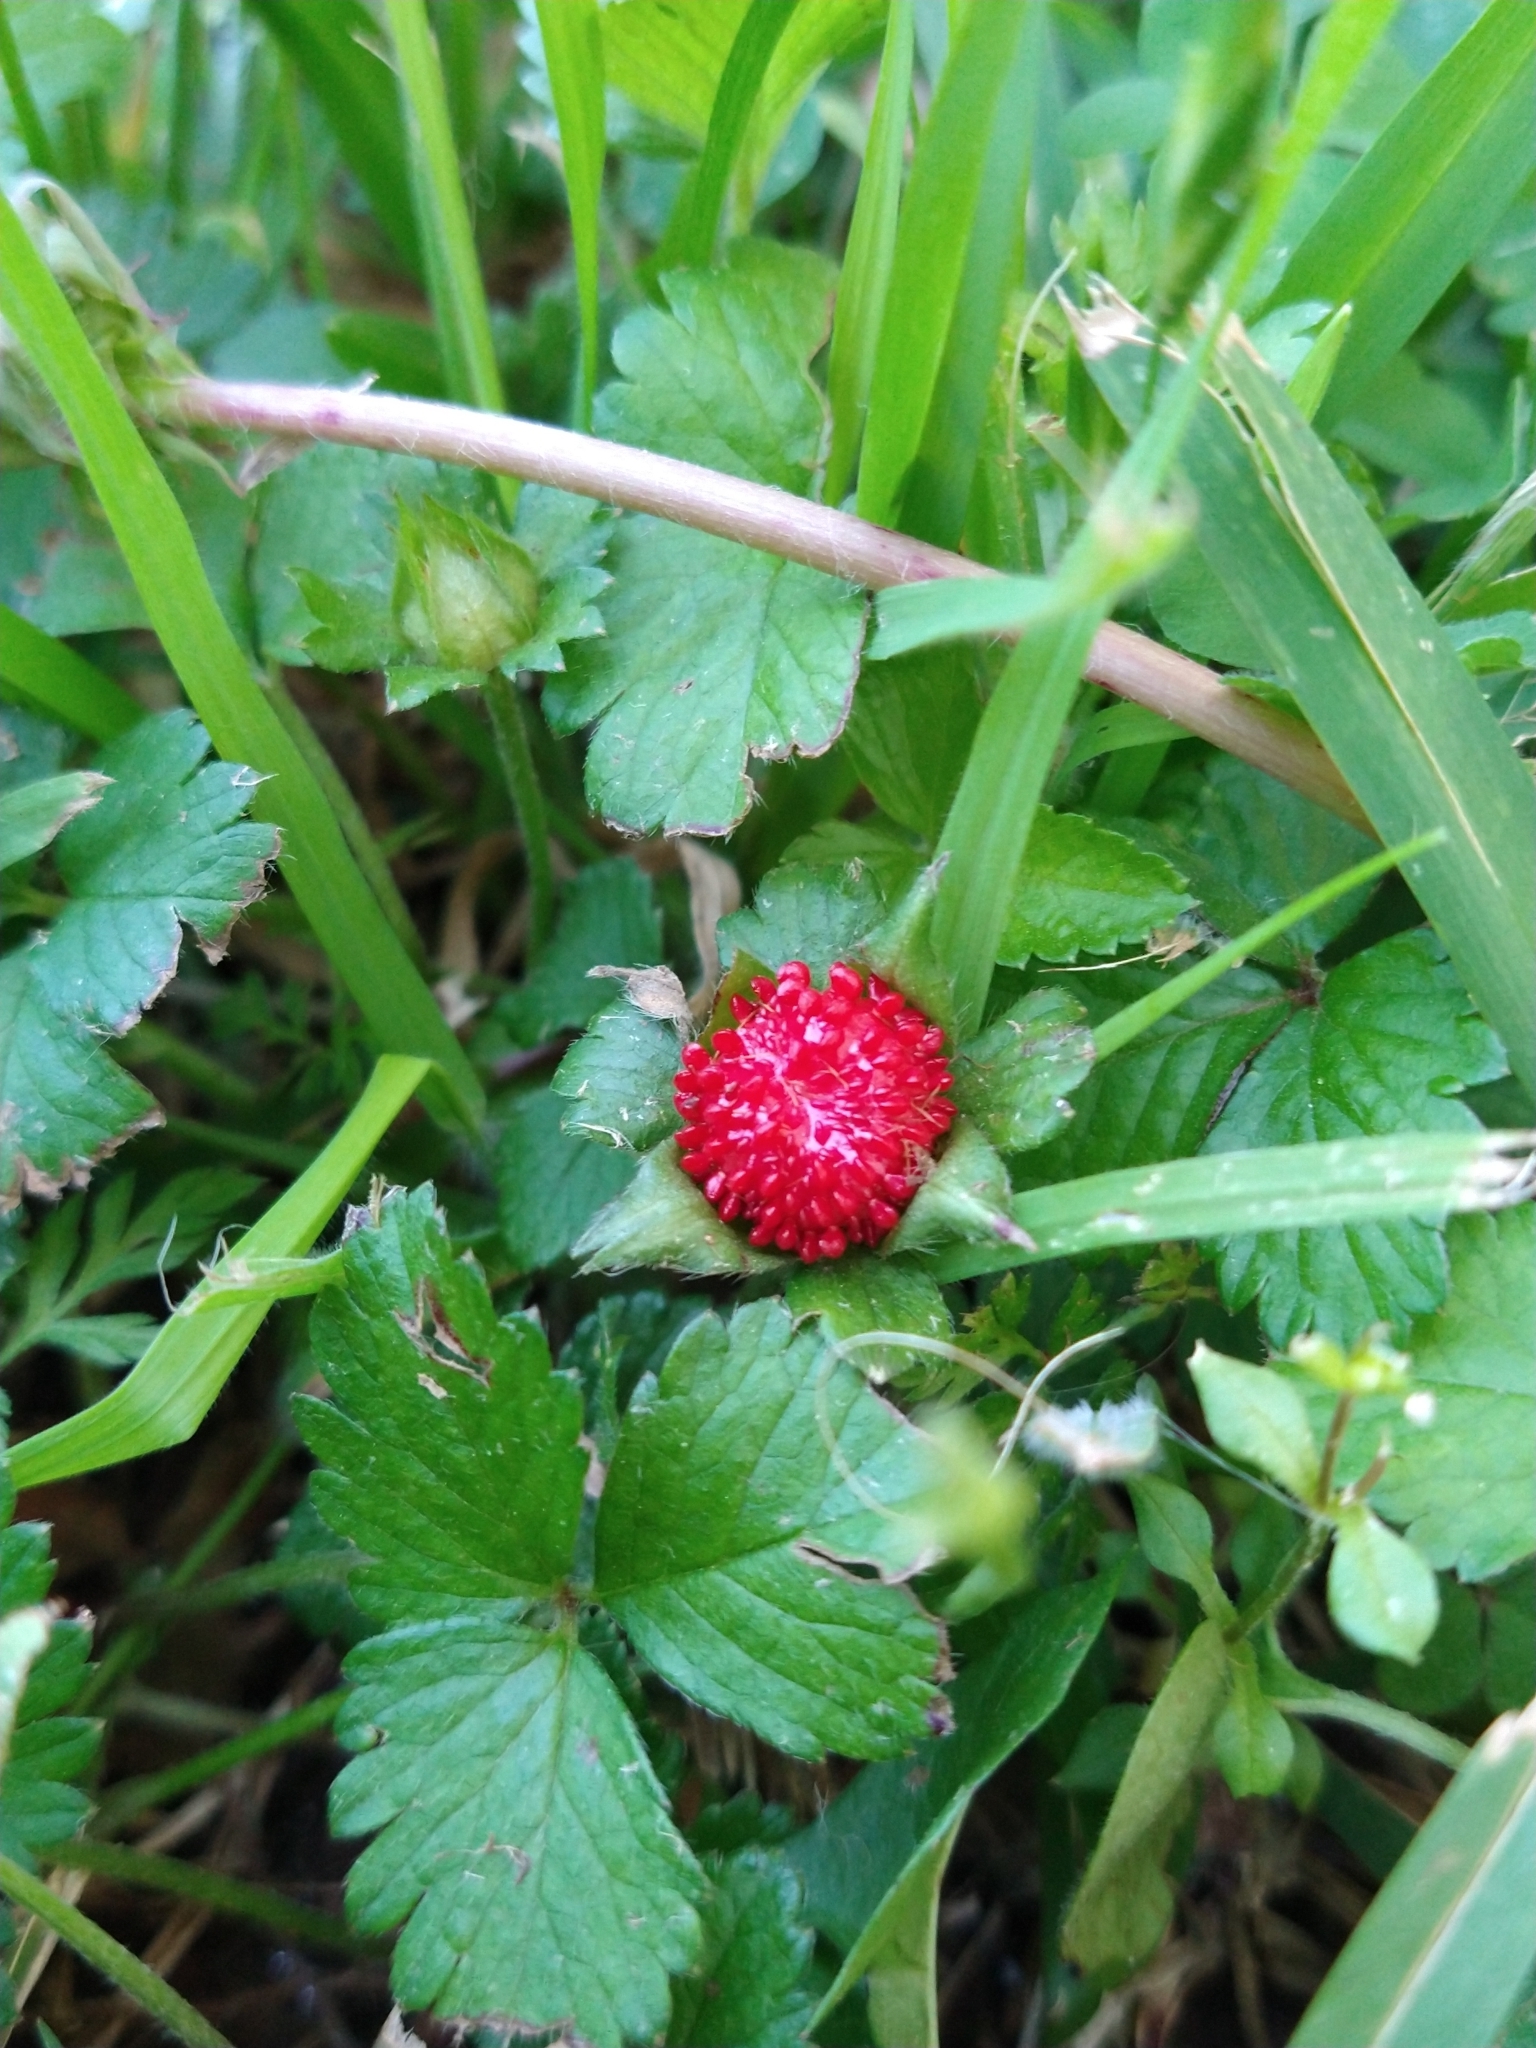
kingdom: Plantae
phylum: Tracheophyta
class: Magnoliopsida
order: Rosales
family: Rosaceae
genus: Potentilla
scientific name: Potentilla indica
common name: Yellow-flowered strawberry
